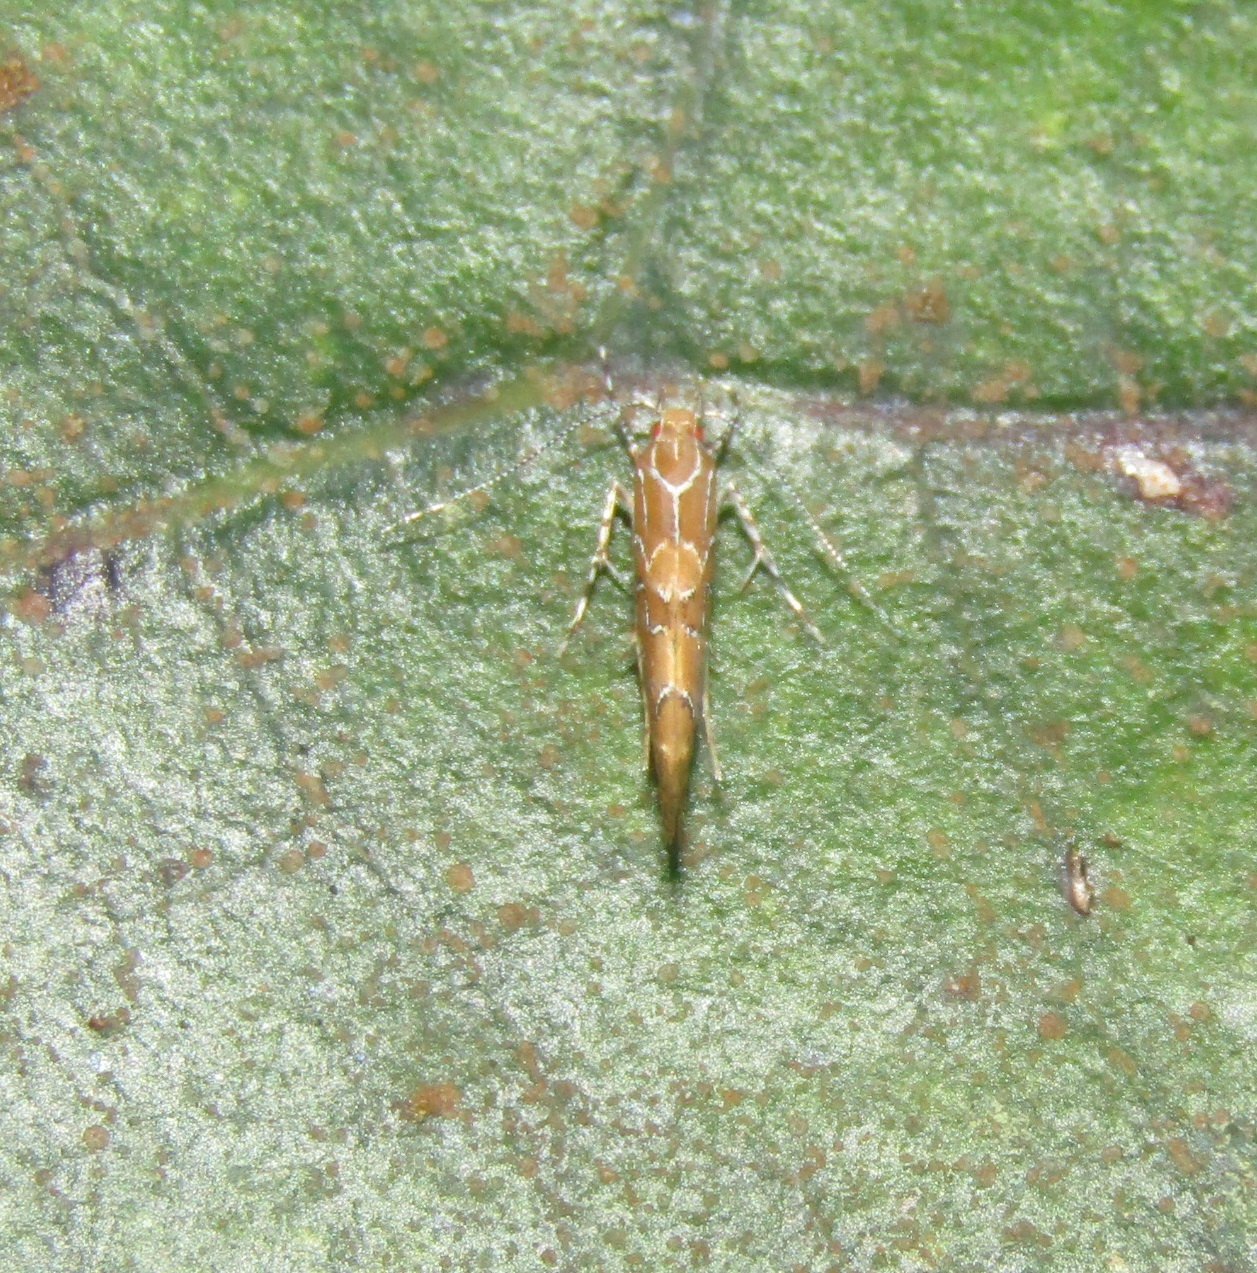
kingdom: Animalia
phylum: Arthropoda
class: Insecta
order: Lepidoptera
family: Cosmopterigidae
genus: Pyroderces
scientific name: Pyroderces apparitella
